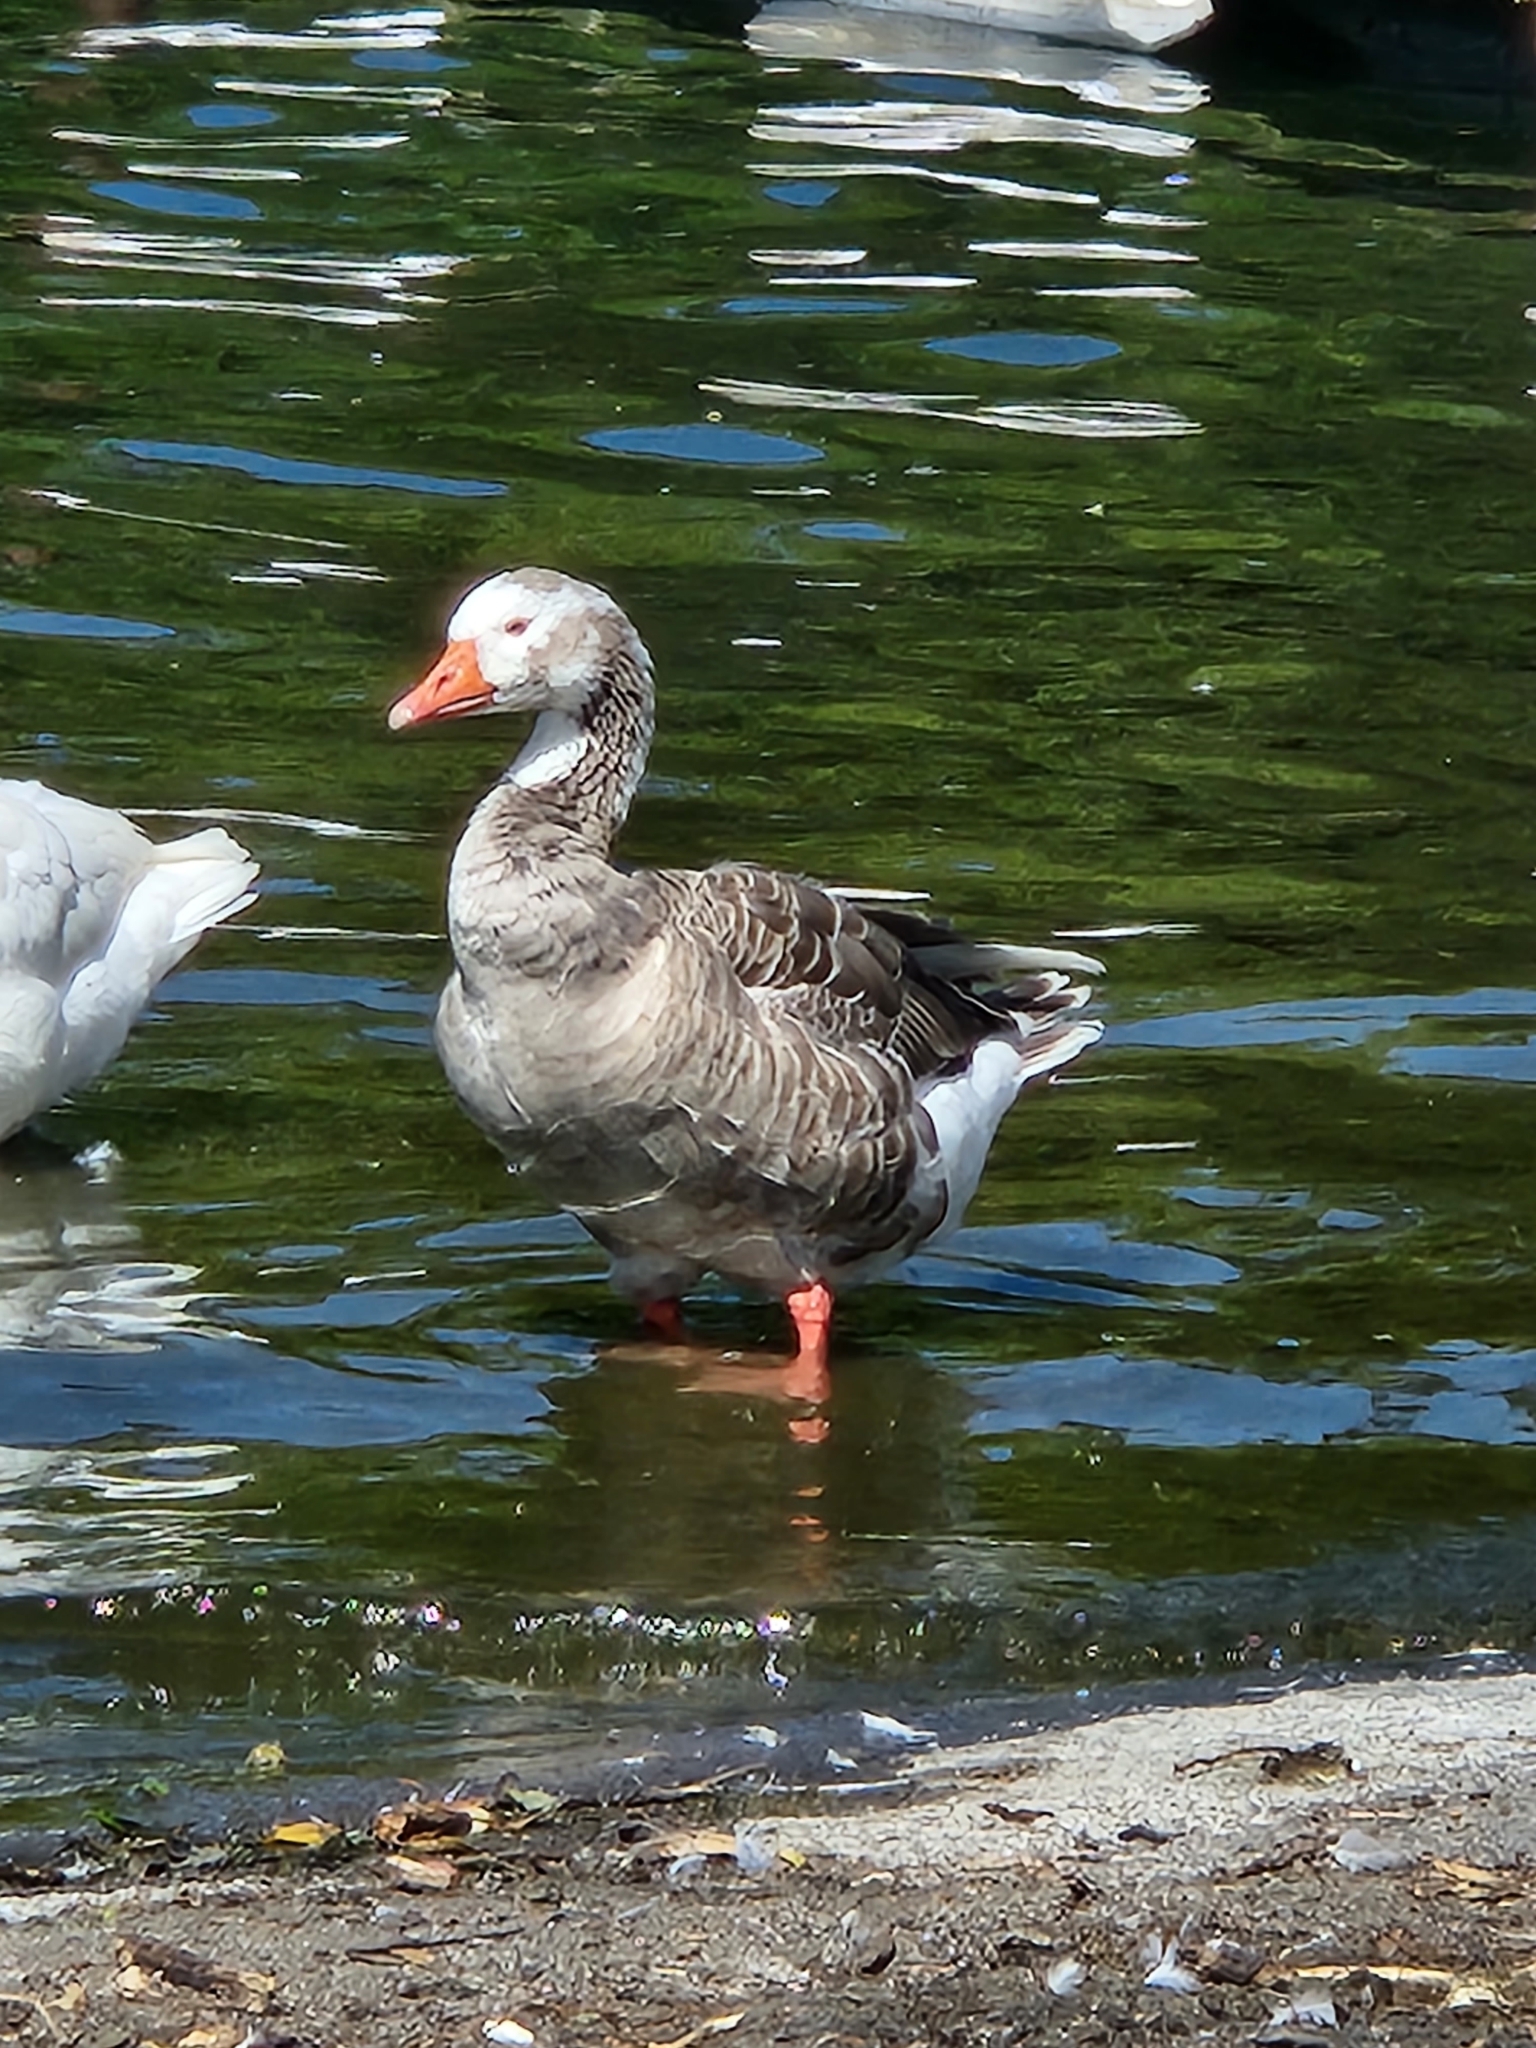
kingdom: Animalia
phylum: Chordata
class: Aves
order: Anseriformes
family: Anatidae
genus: Anser
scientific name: Anser anser
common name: Greylag goose
